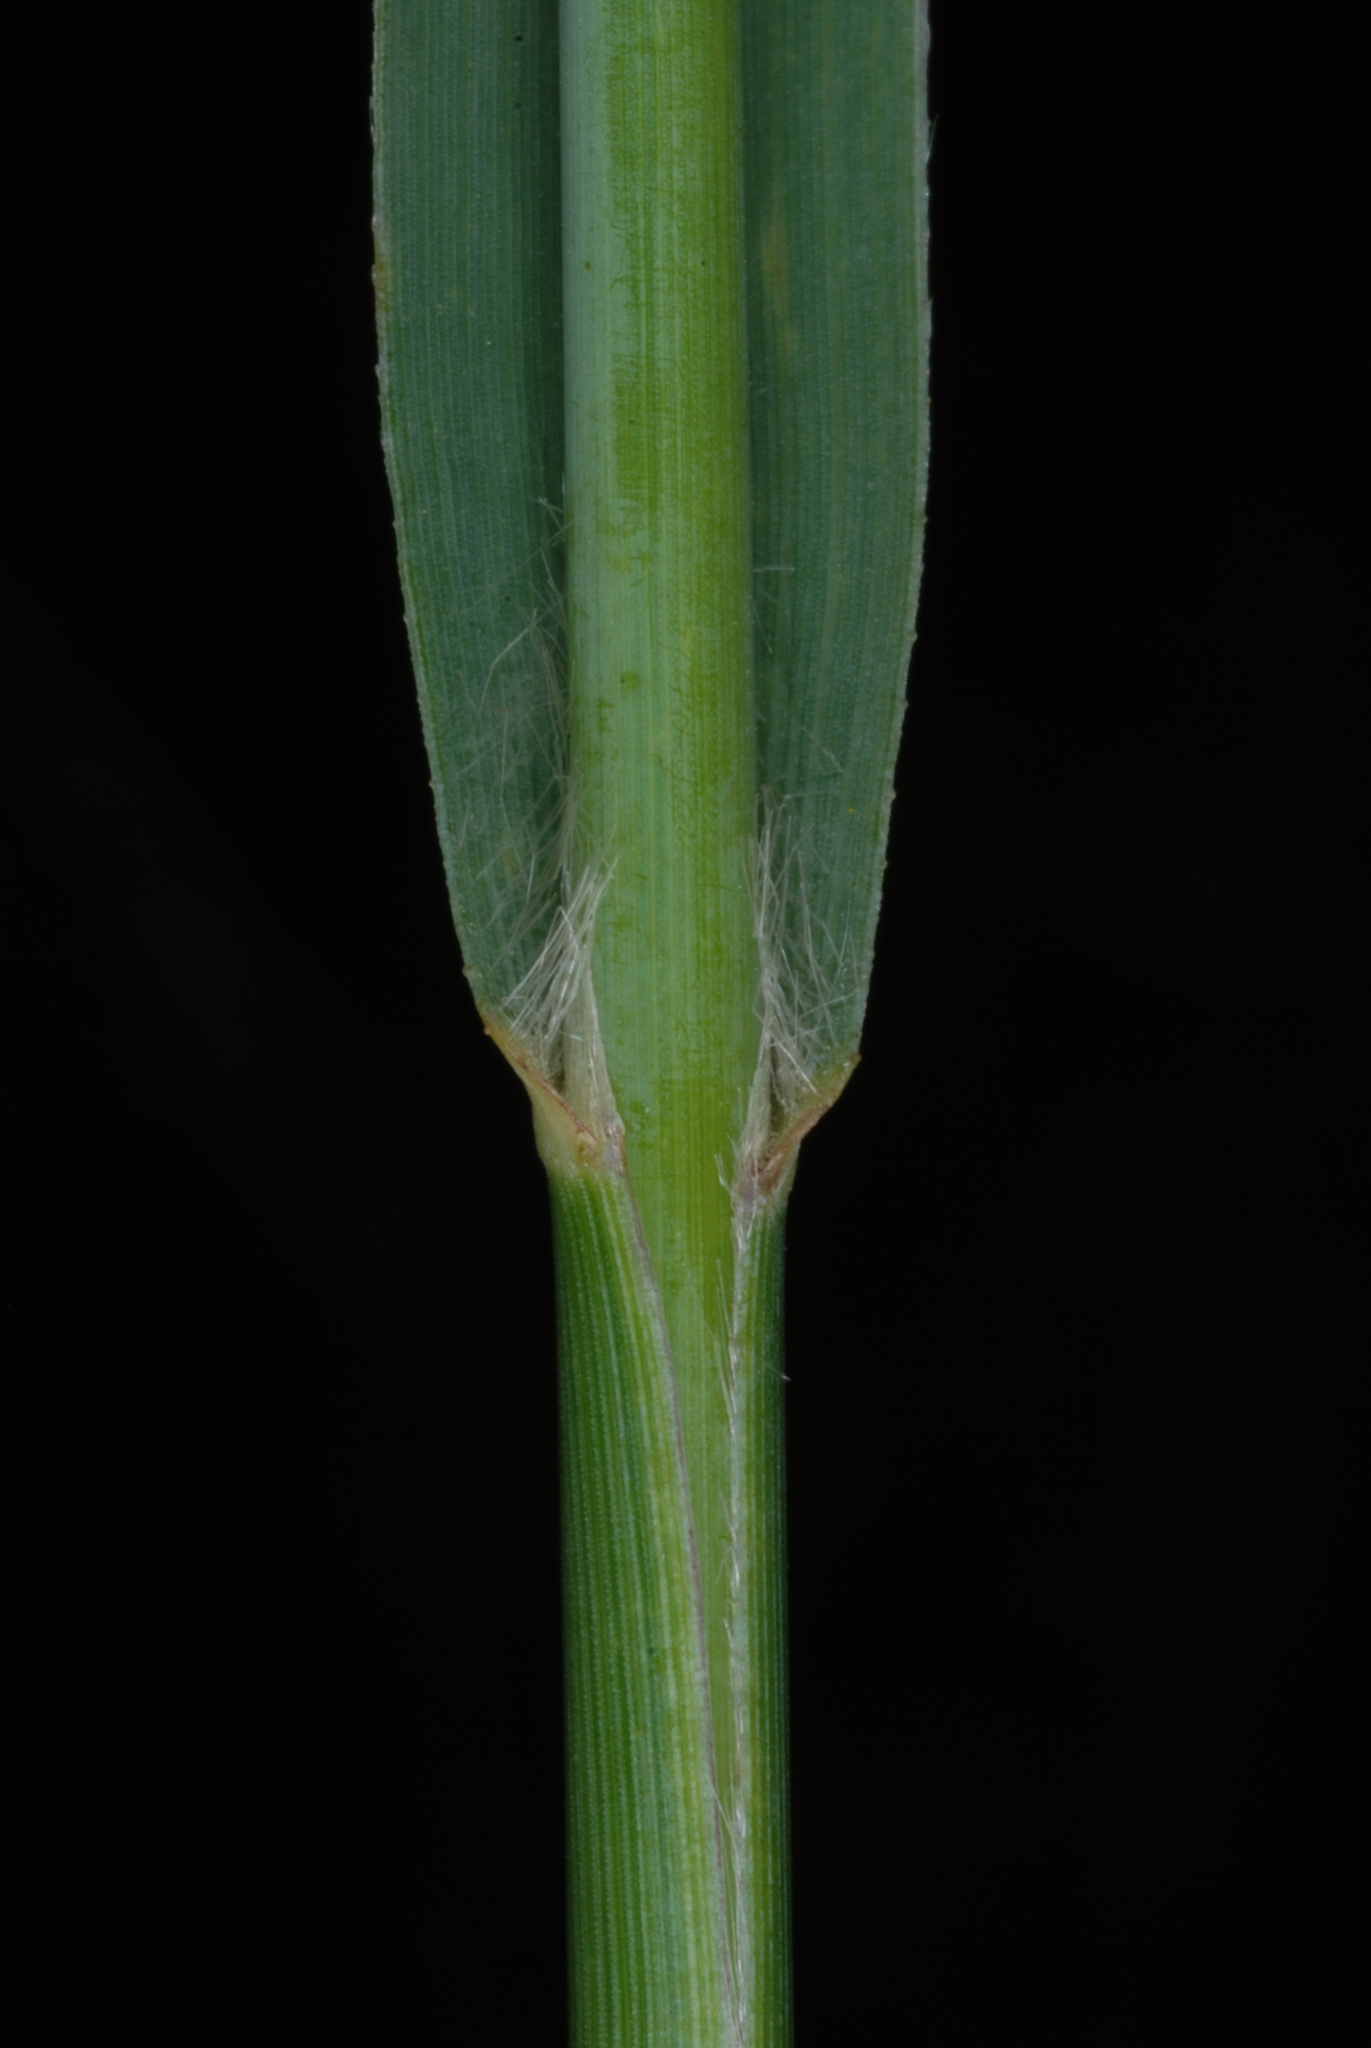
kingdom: Plantae
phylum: Tracheophyta
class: Liliopsida
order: Poales
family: Poaceae
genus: Panicum
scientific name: Panicum virgatum
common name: Switchgrass
